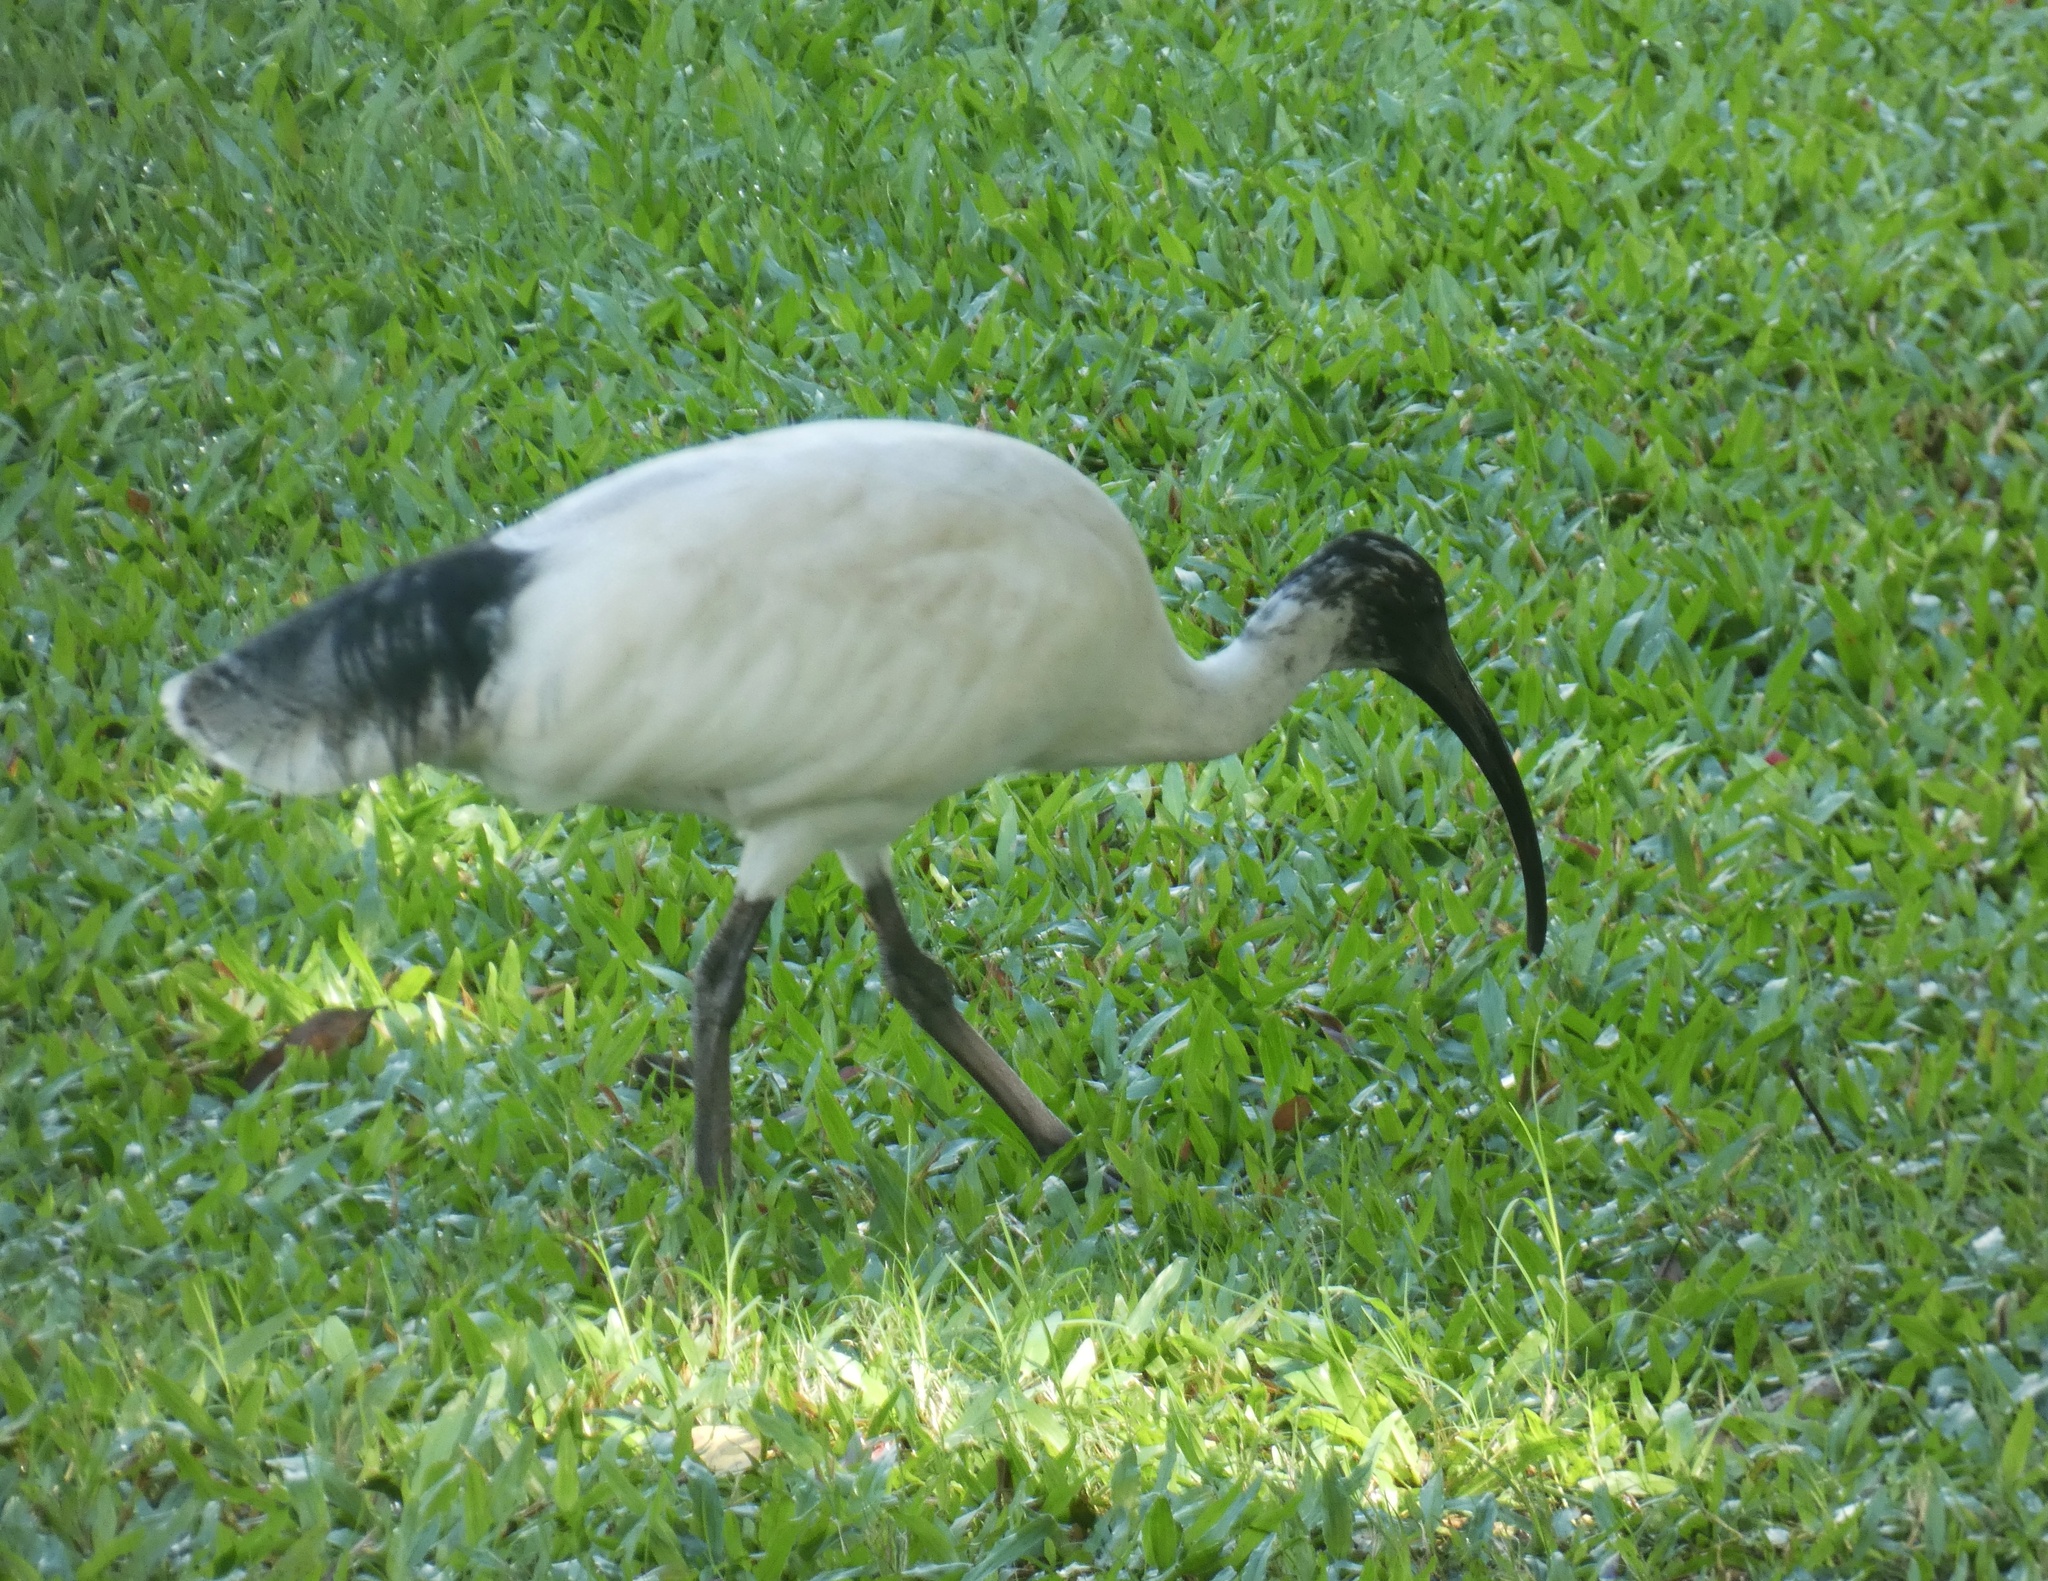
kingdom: Animalia
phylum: Chordata
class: Aves
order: Pelecaniformes
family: Threskiornithidae
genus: Threskiornis
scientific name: Threskiornis molucca
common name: Australian white ibis
